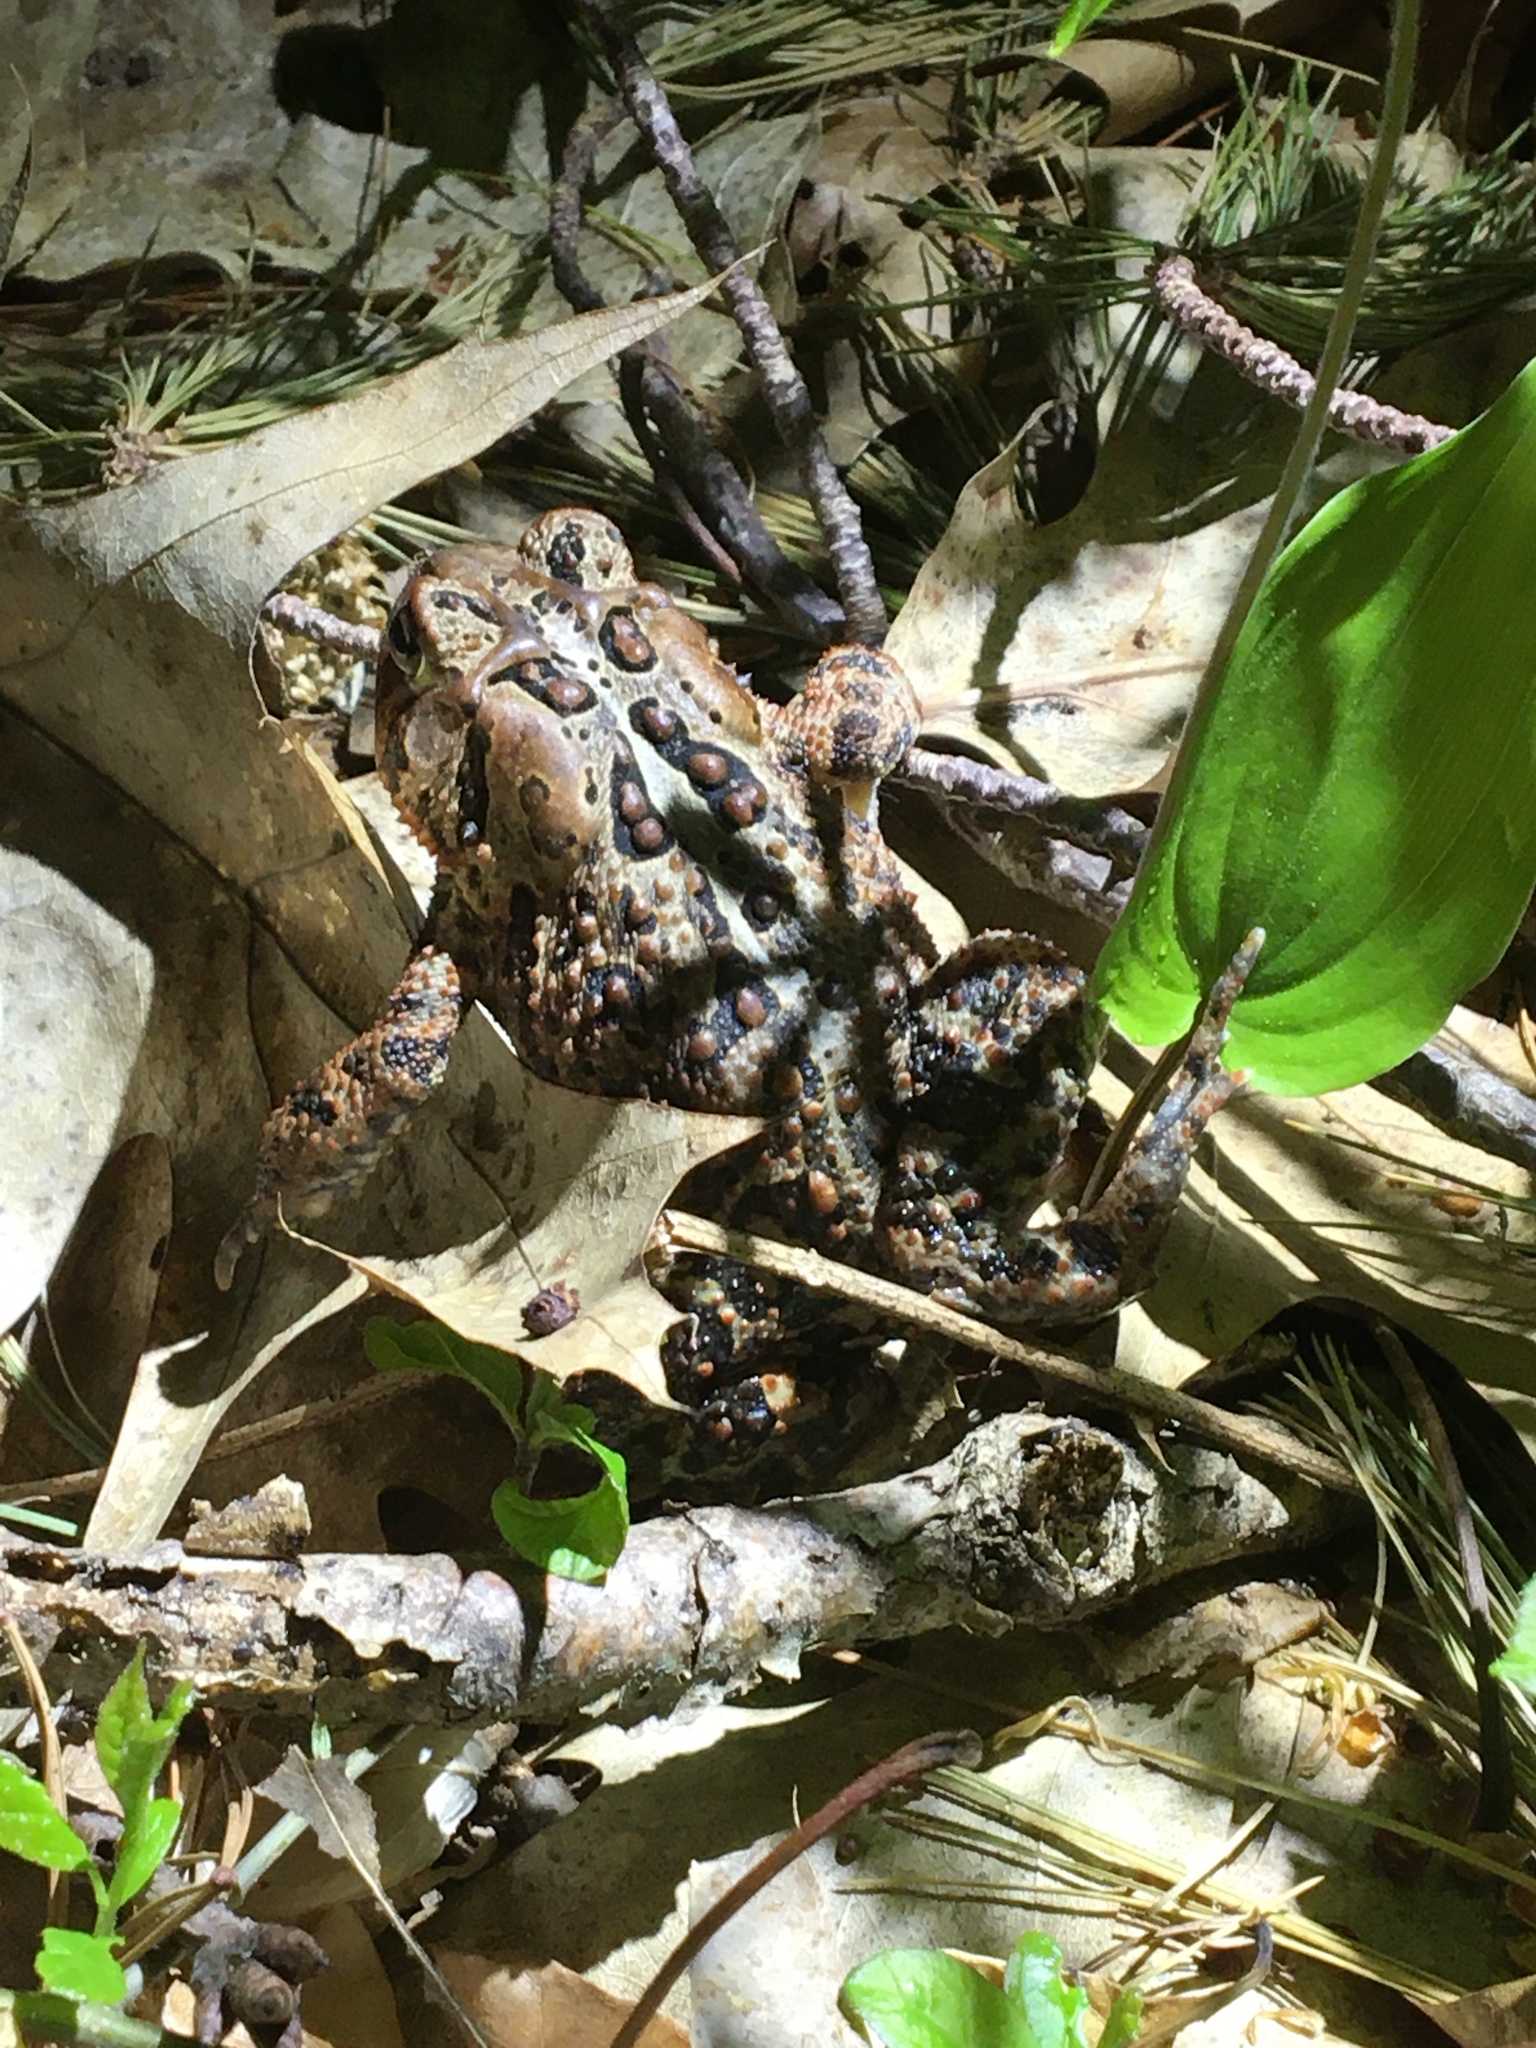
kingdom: Animalia
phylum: Chordata
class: Amphibia
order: Anura
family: Bufonidae
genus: Anaxyrus
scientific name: Anaxyrus americanus
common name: American toad
